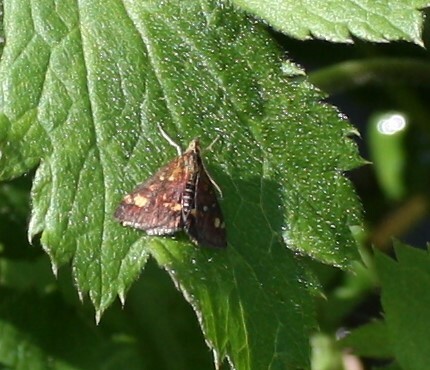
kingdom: Animalia
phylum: Arthropoda
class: Insecta
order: Lepidoptera
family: Crambidae
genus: Pyrausta
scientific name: Pyrausta aurata
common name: Small purple & gold
